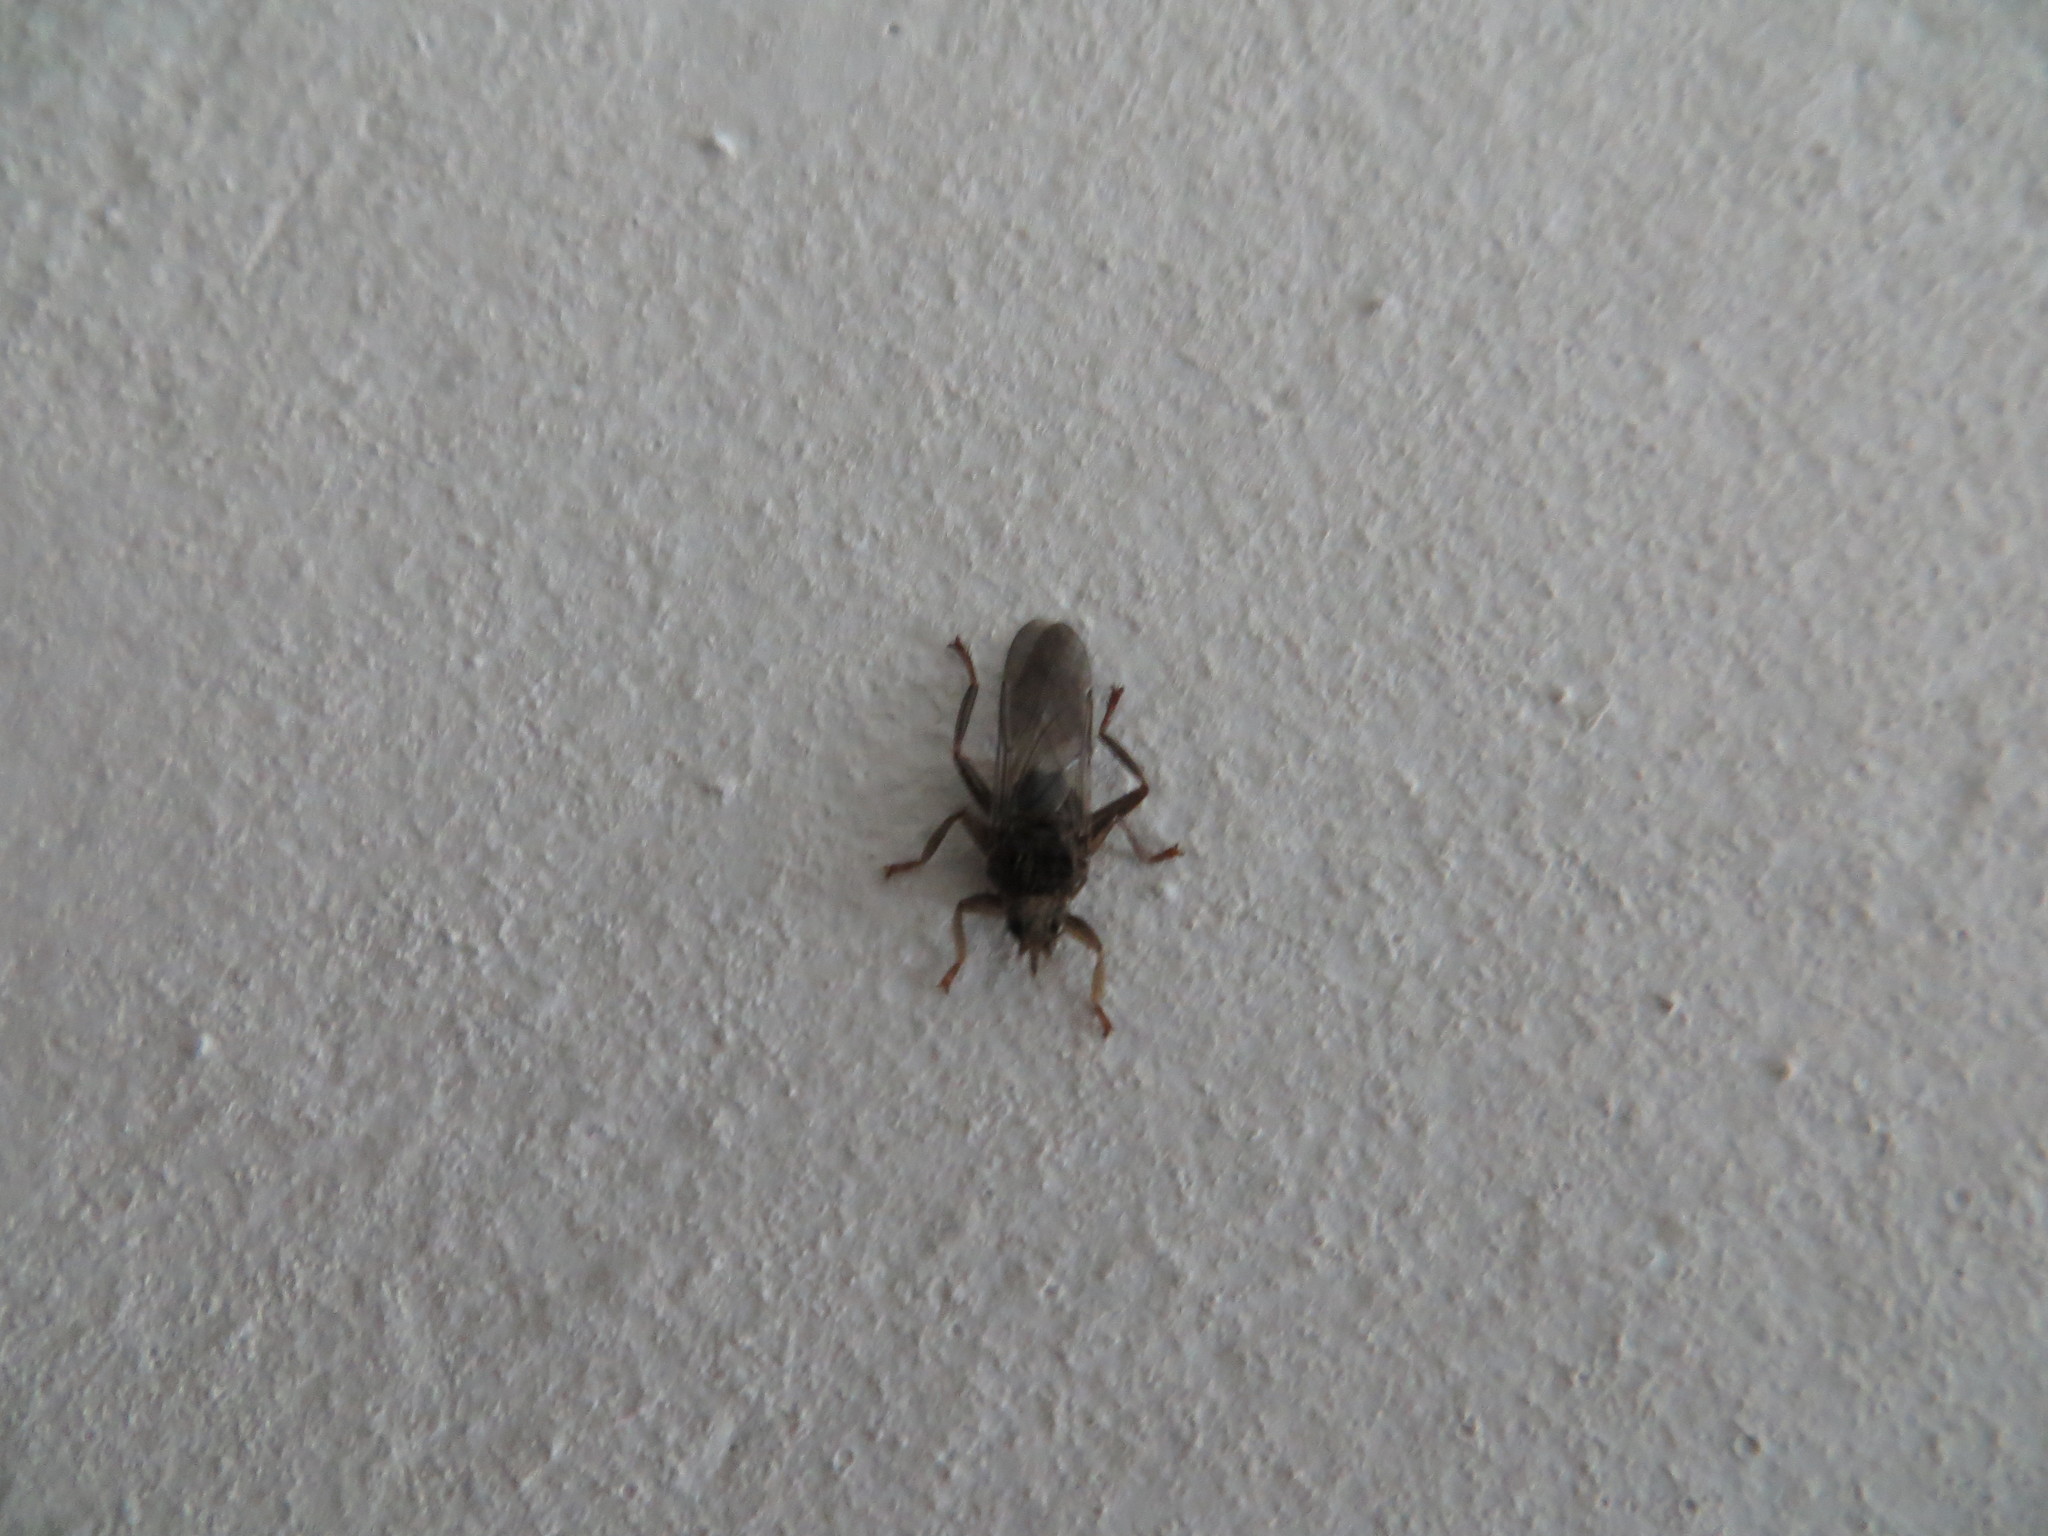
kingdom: Animalia
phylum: Arthropoda
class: Insecta
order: Diptera
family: Hippoboscidae
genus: Pseudolynchia
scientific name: Pseudolynchia canariensis
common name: Louse fly
